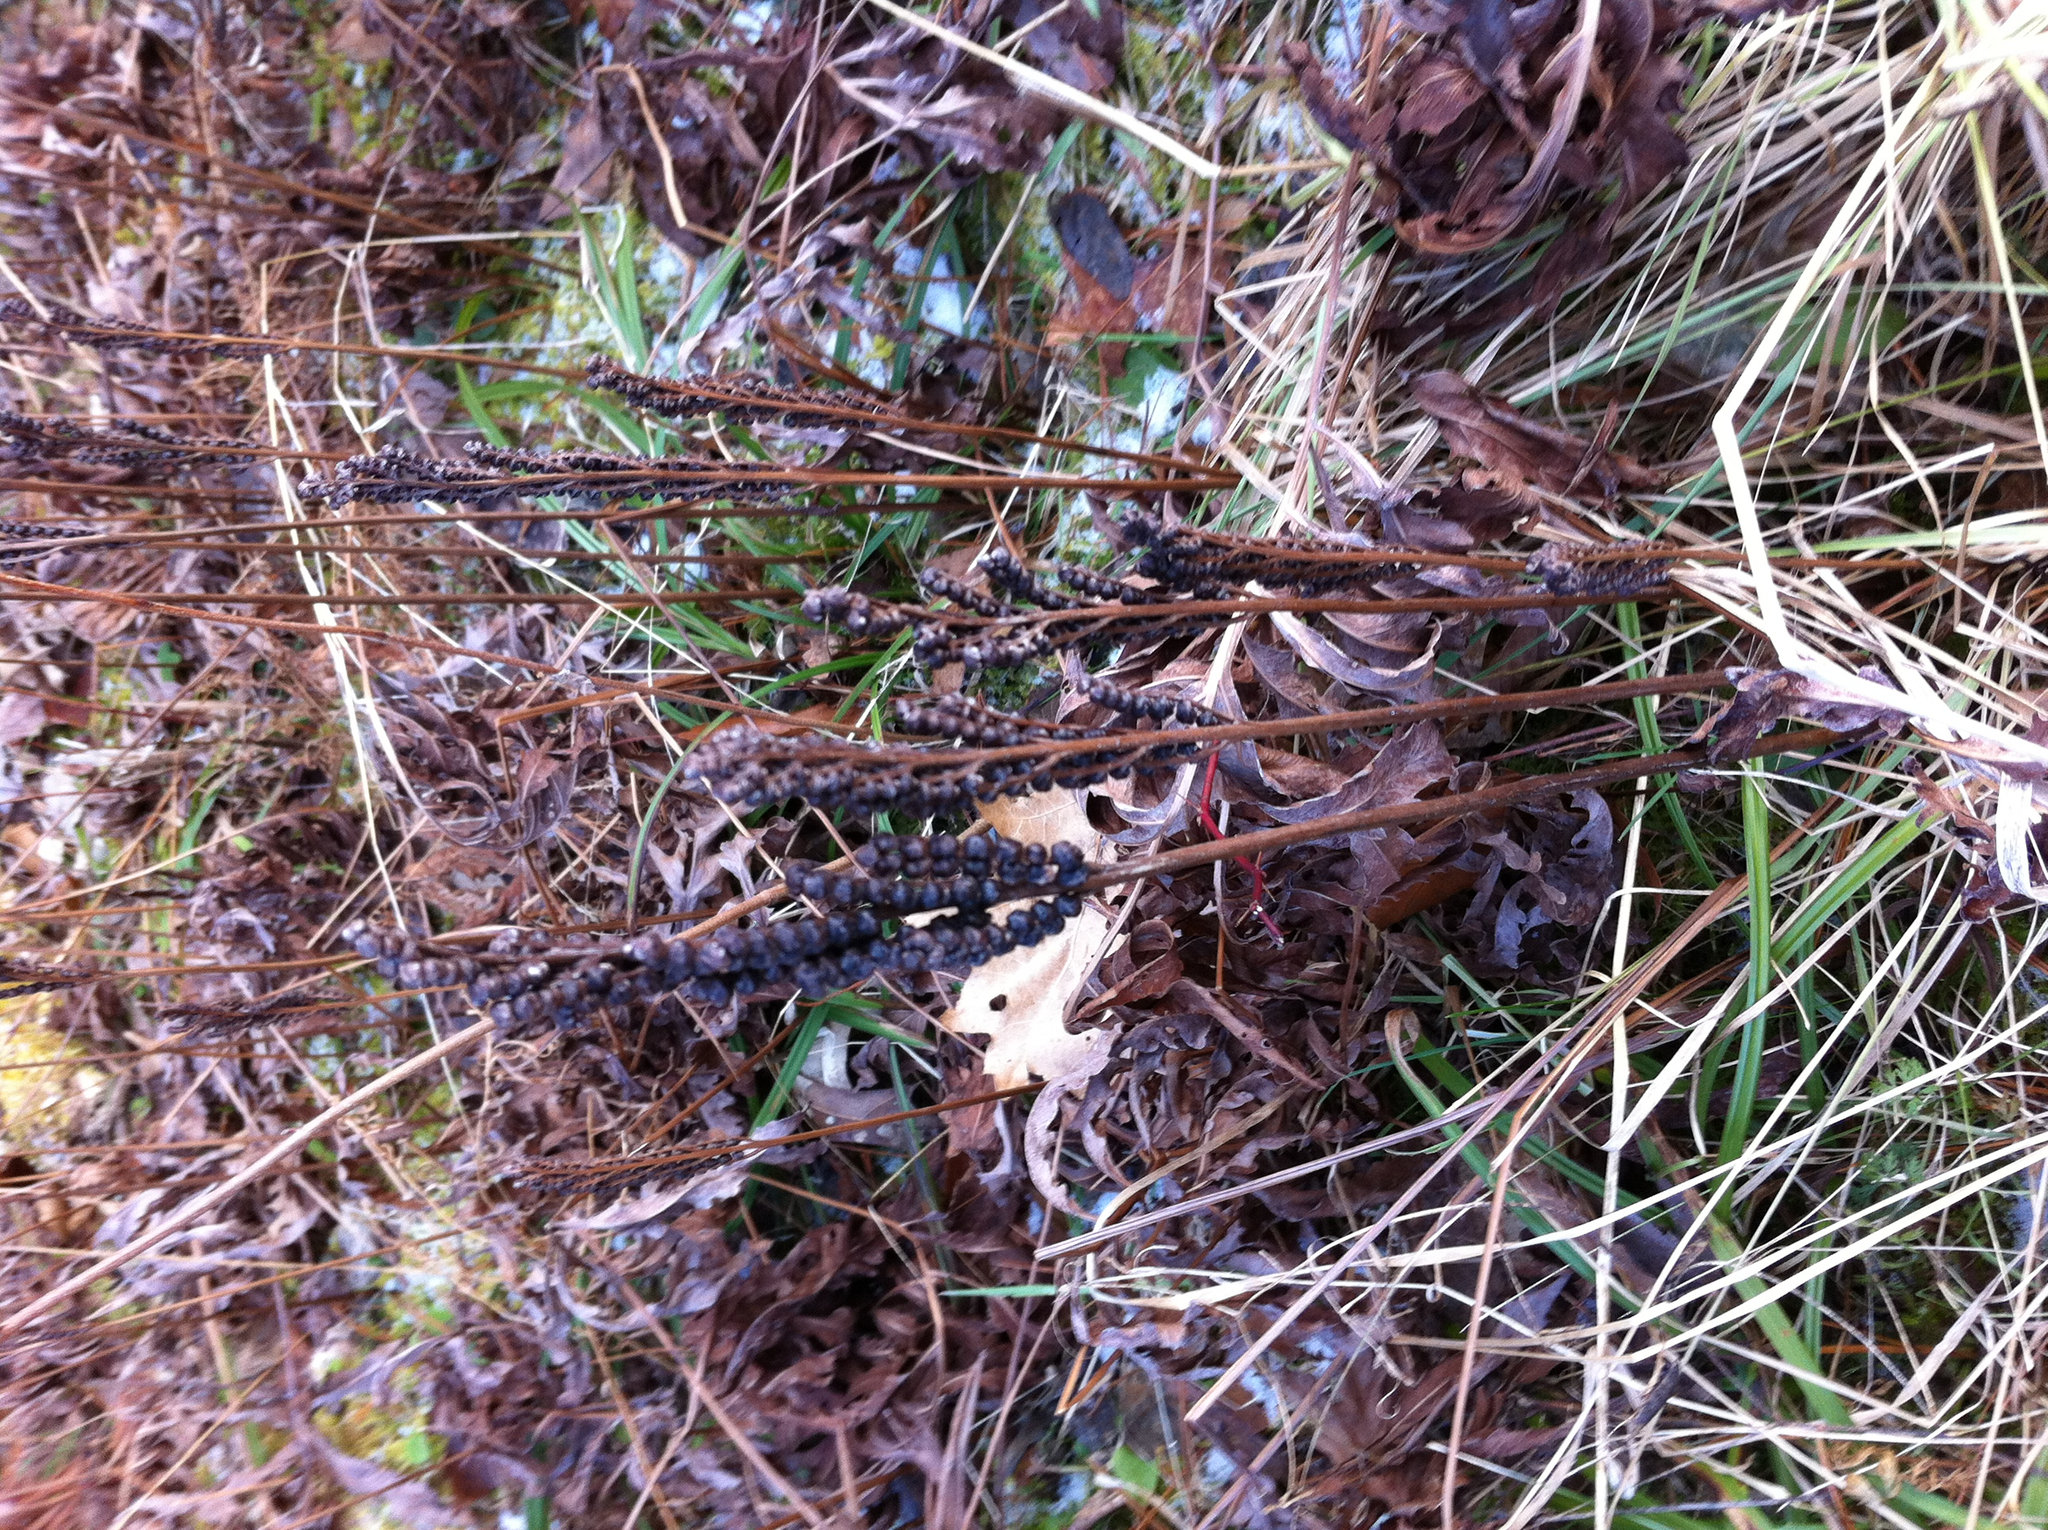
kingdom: Plantae
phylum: Tracheophyta
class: Polypodiopsida
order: Polypodiales
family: Onocleaceae
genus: Onoclea
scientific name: Onoclea sensibilis
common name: Sensitive fern
